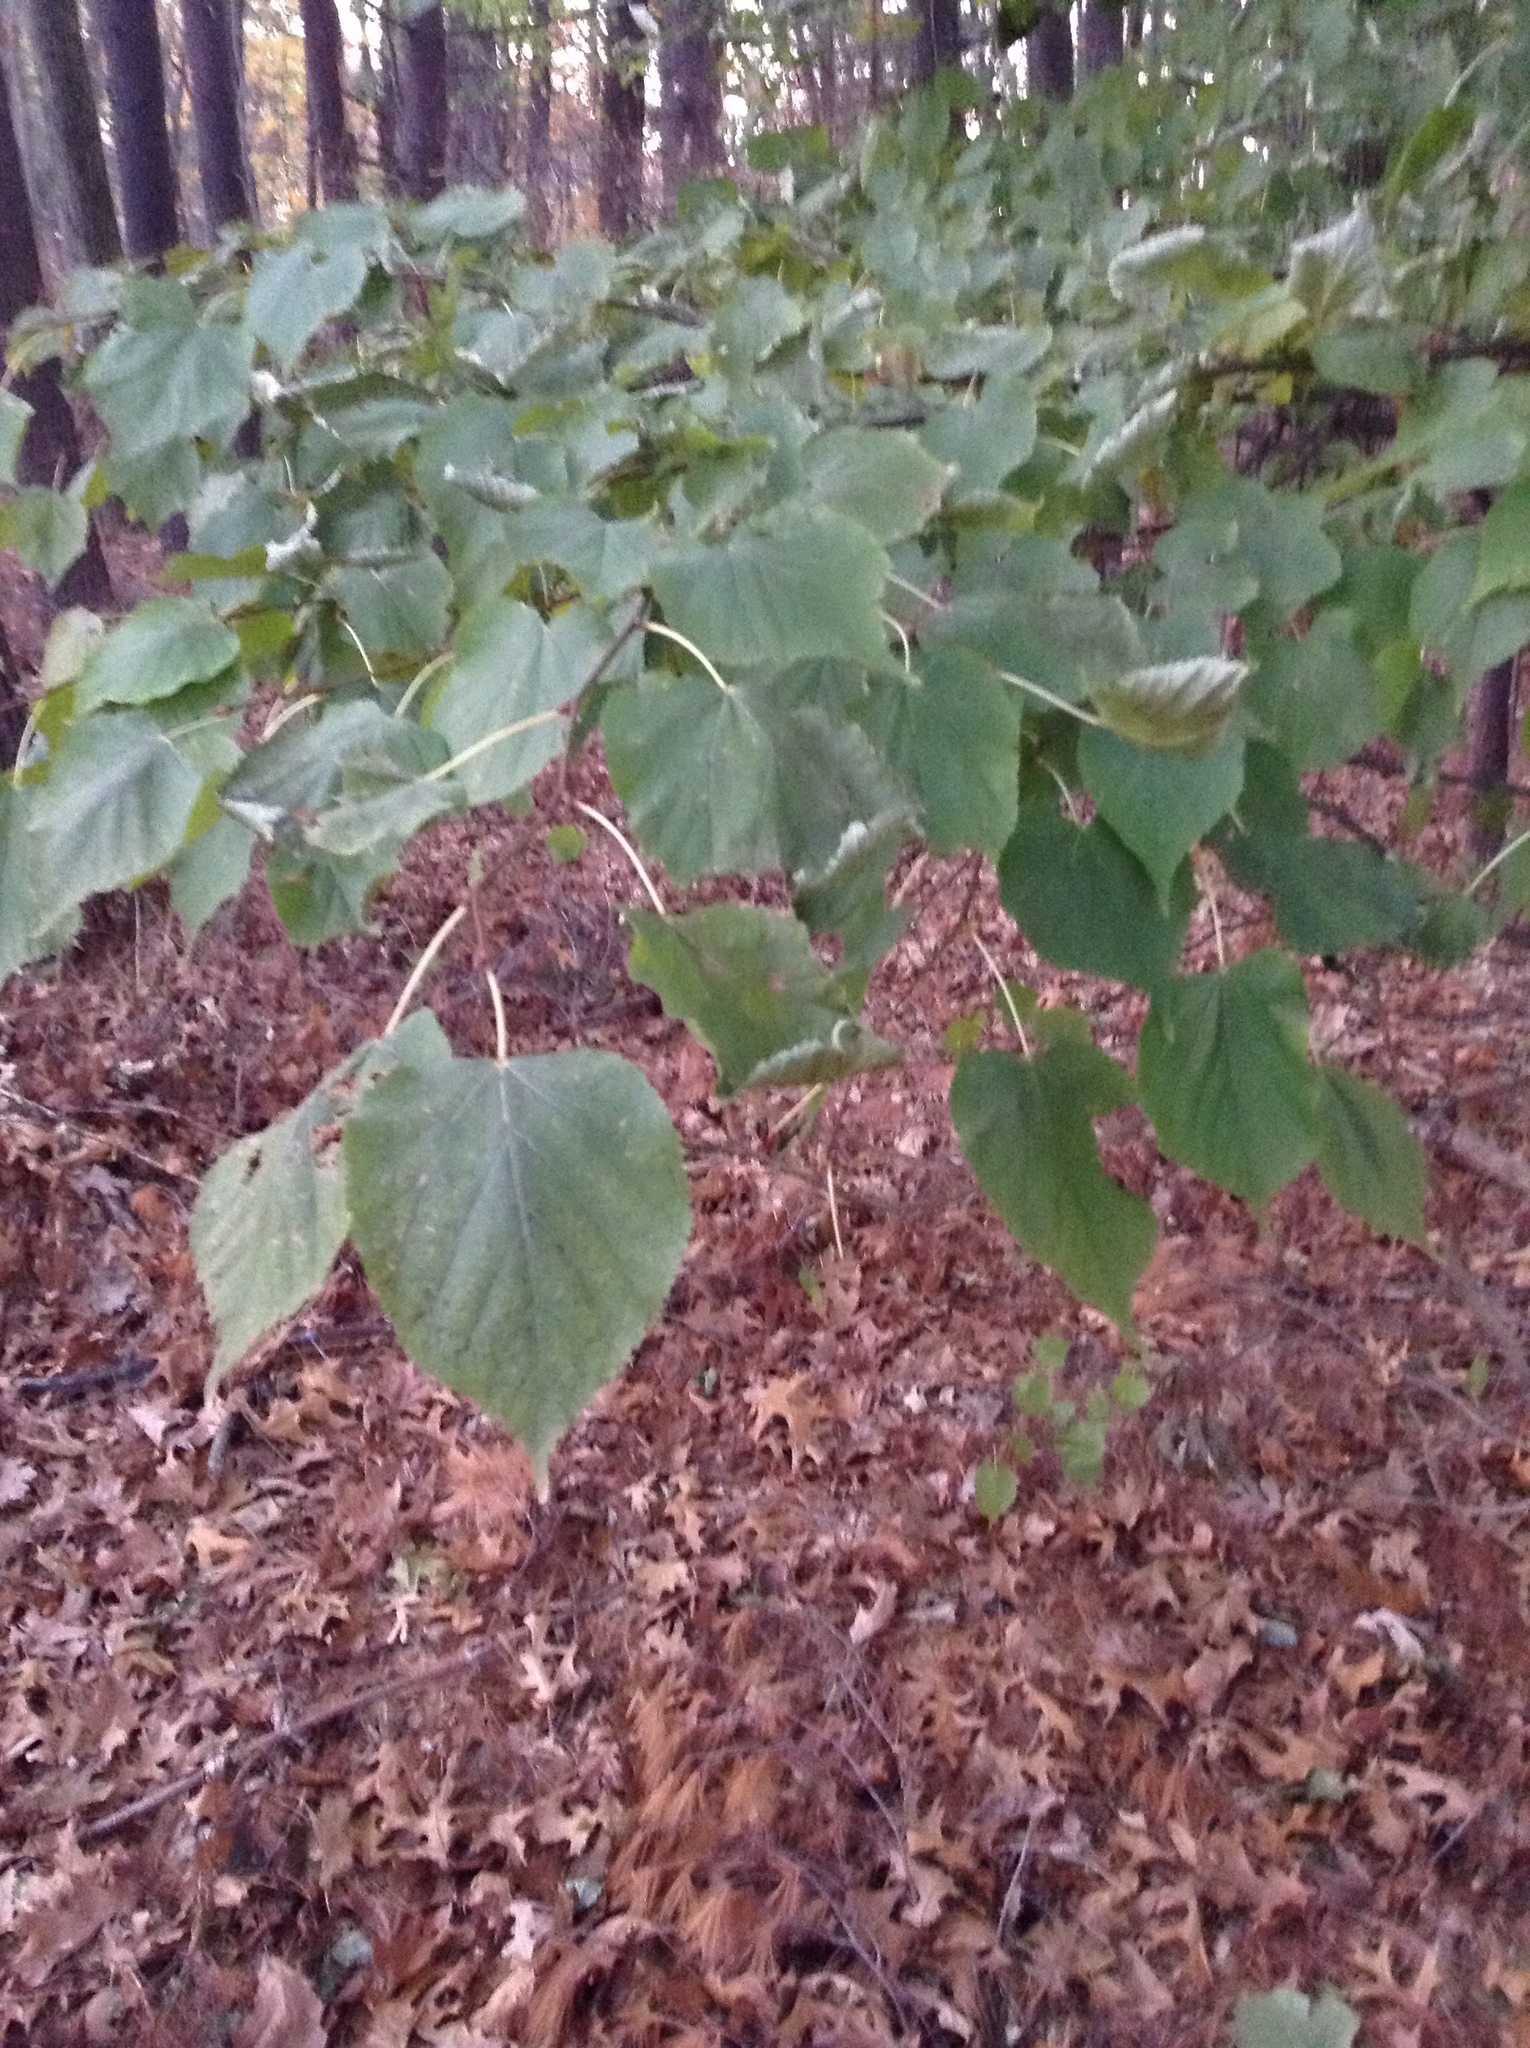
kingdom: Plantae
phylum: Tracheophyta
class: Magnoliopsida
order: Malvales
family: Malvaceae
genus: Tilia
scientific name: Tilia americana
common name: Basswood
